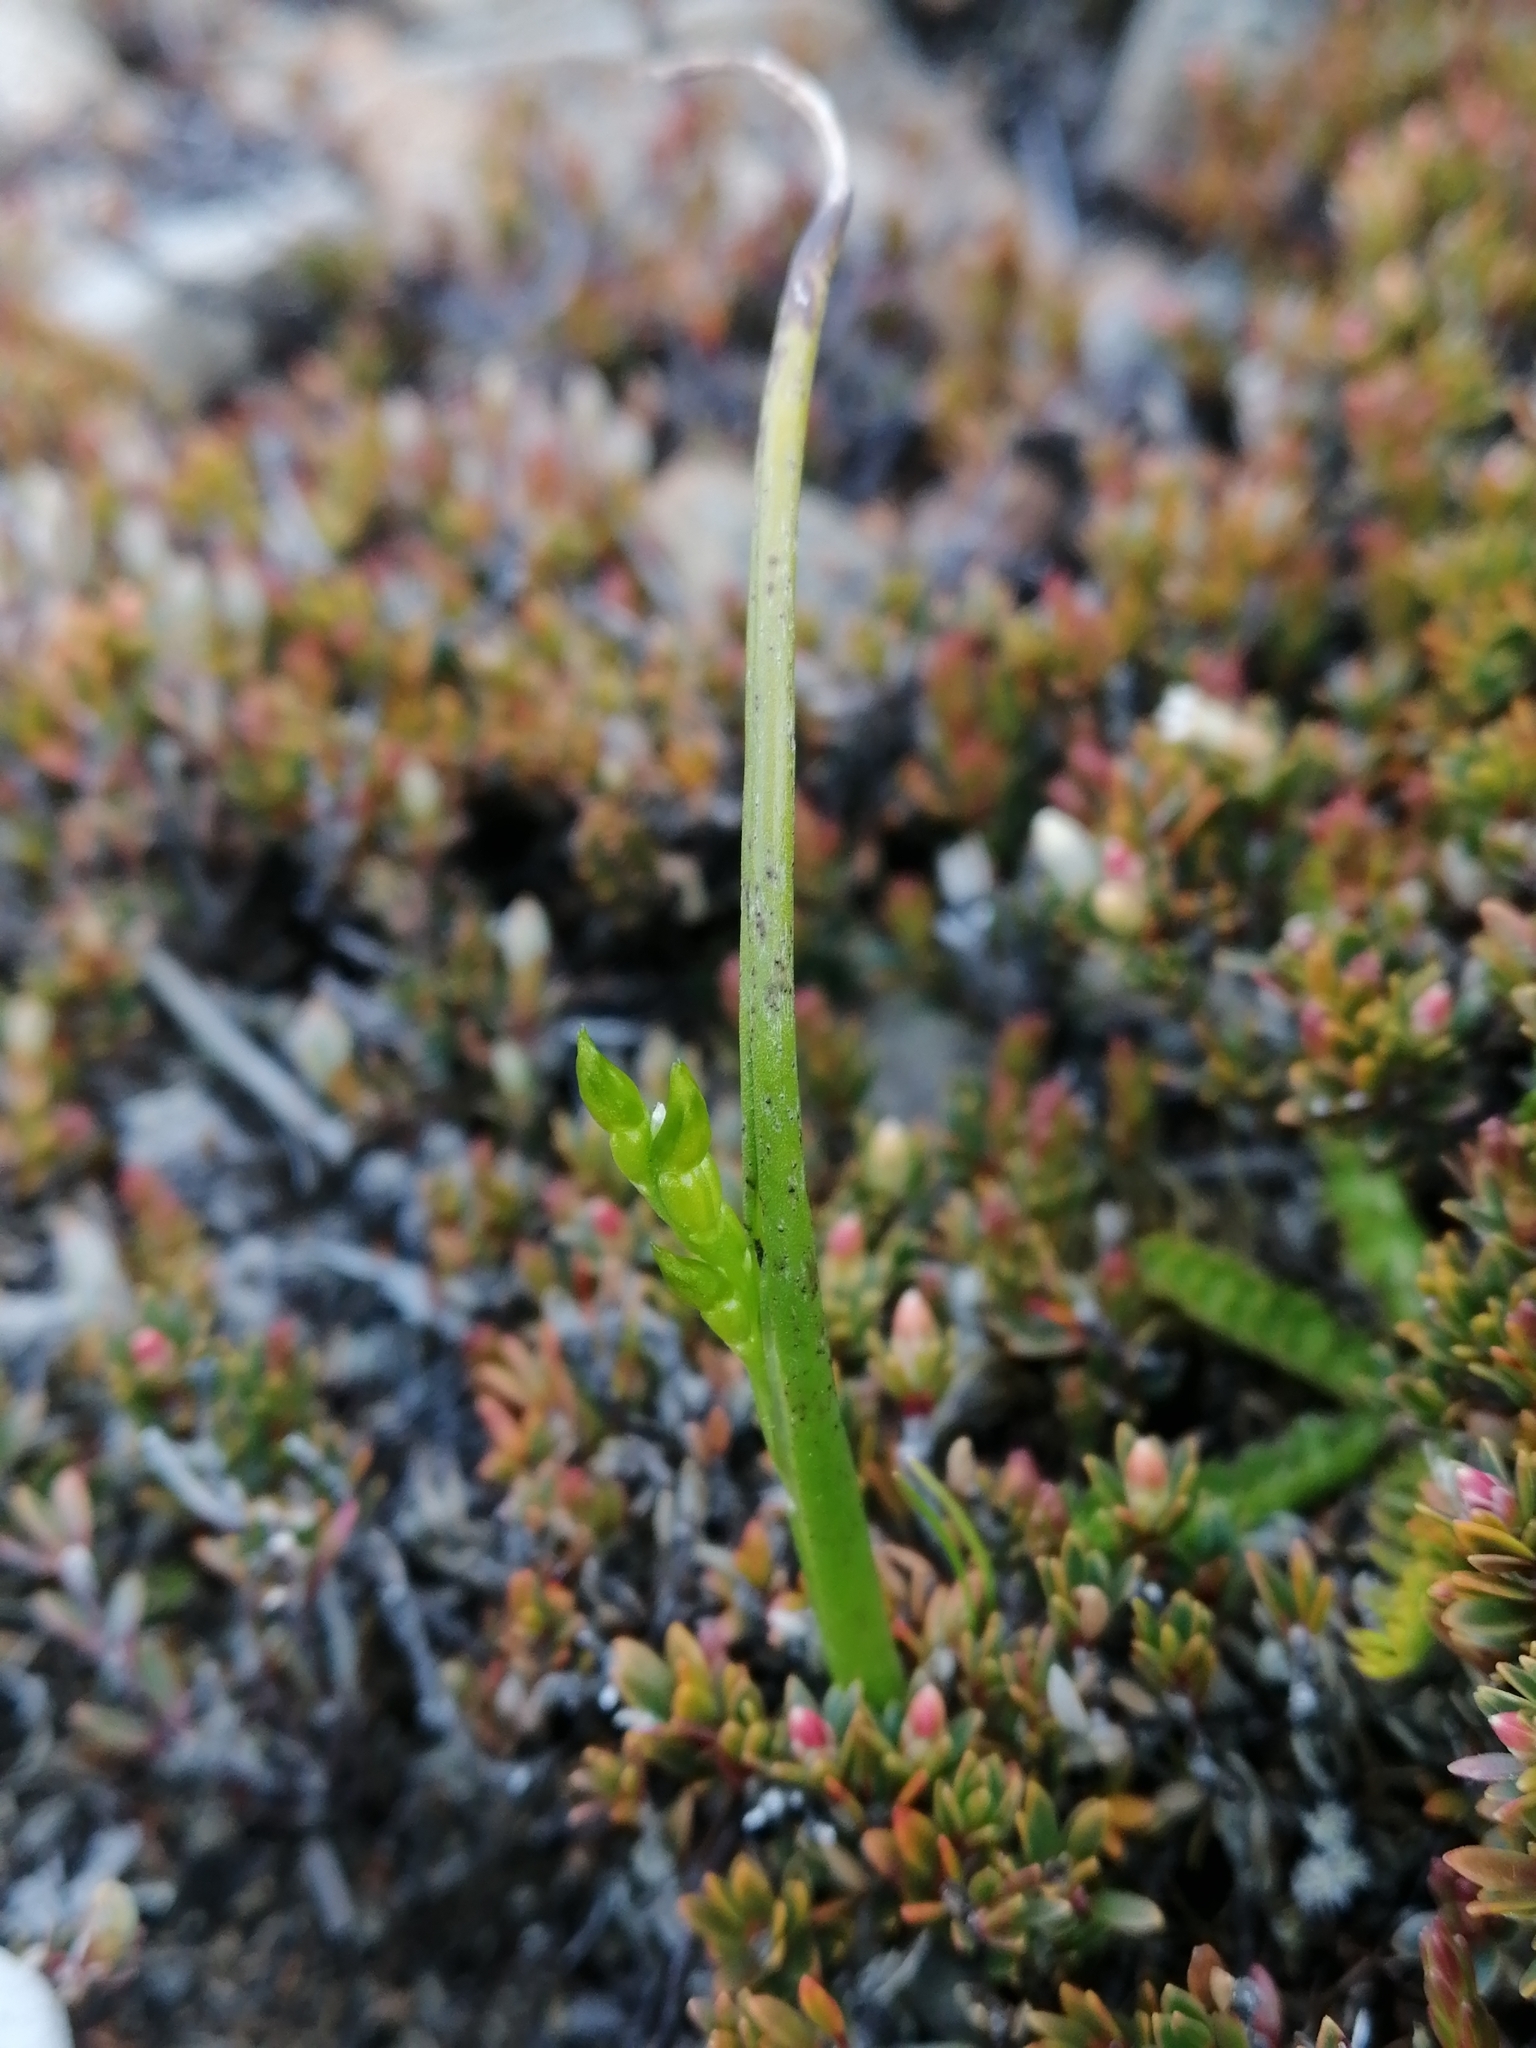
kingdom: Plantae
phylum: Tracheophyta
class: Liliopsida
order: Asparagales
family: Orchidaceae
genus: Prasophyllum
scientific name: Prasophyllum colensoi
